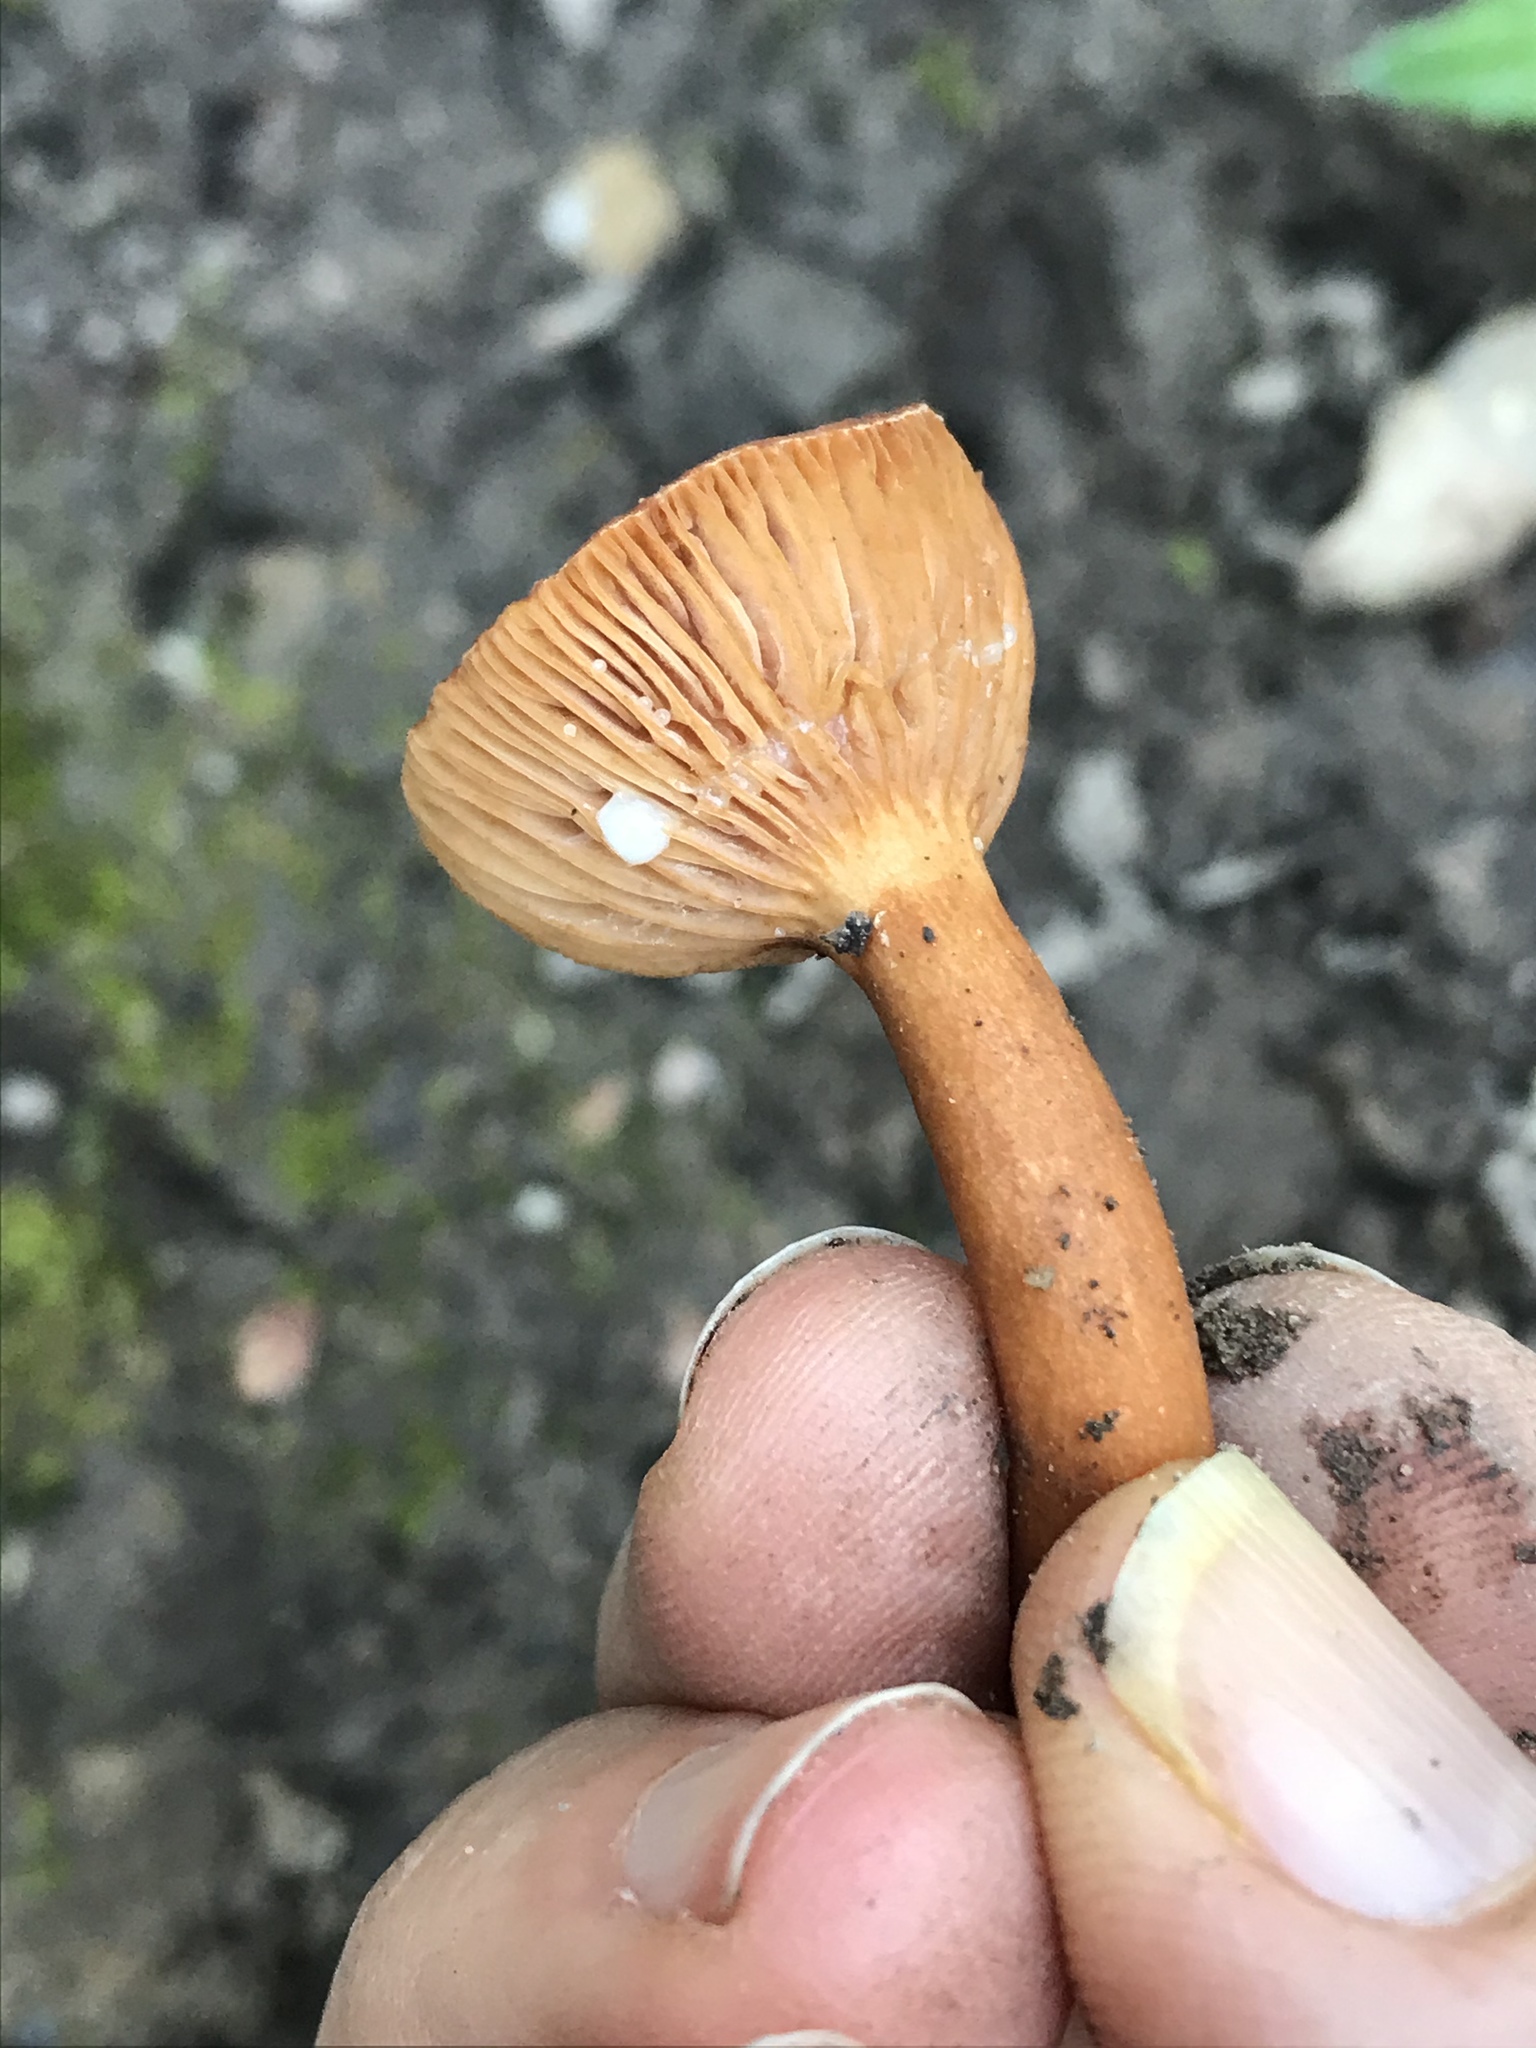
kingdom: Fungi
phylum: Basidiomycota
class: Agaricomycetes
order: Russulales
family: Russulaceae
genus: Lactarius
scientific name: Lactarius rufulus
